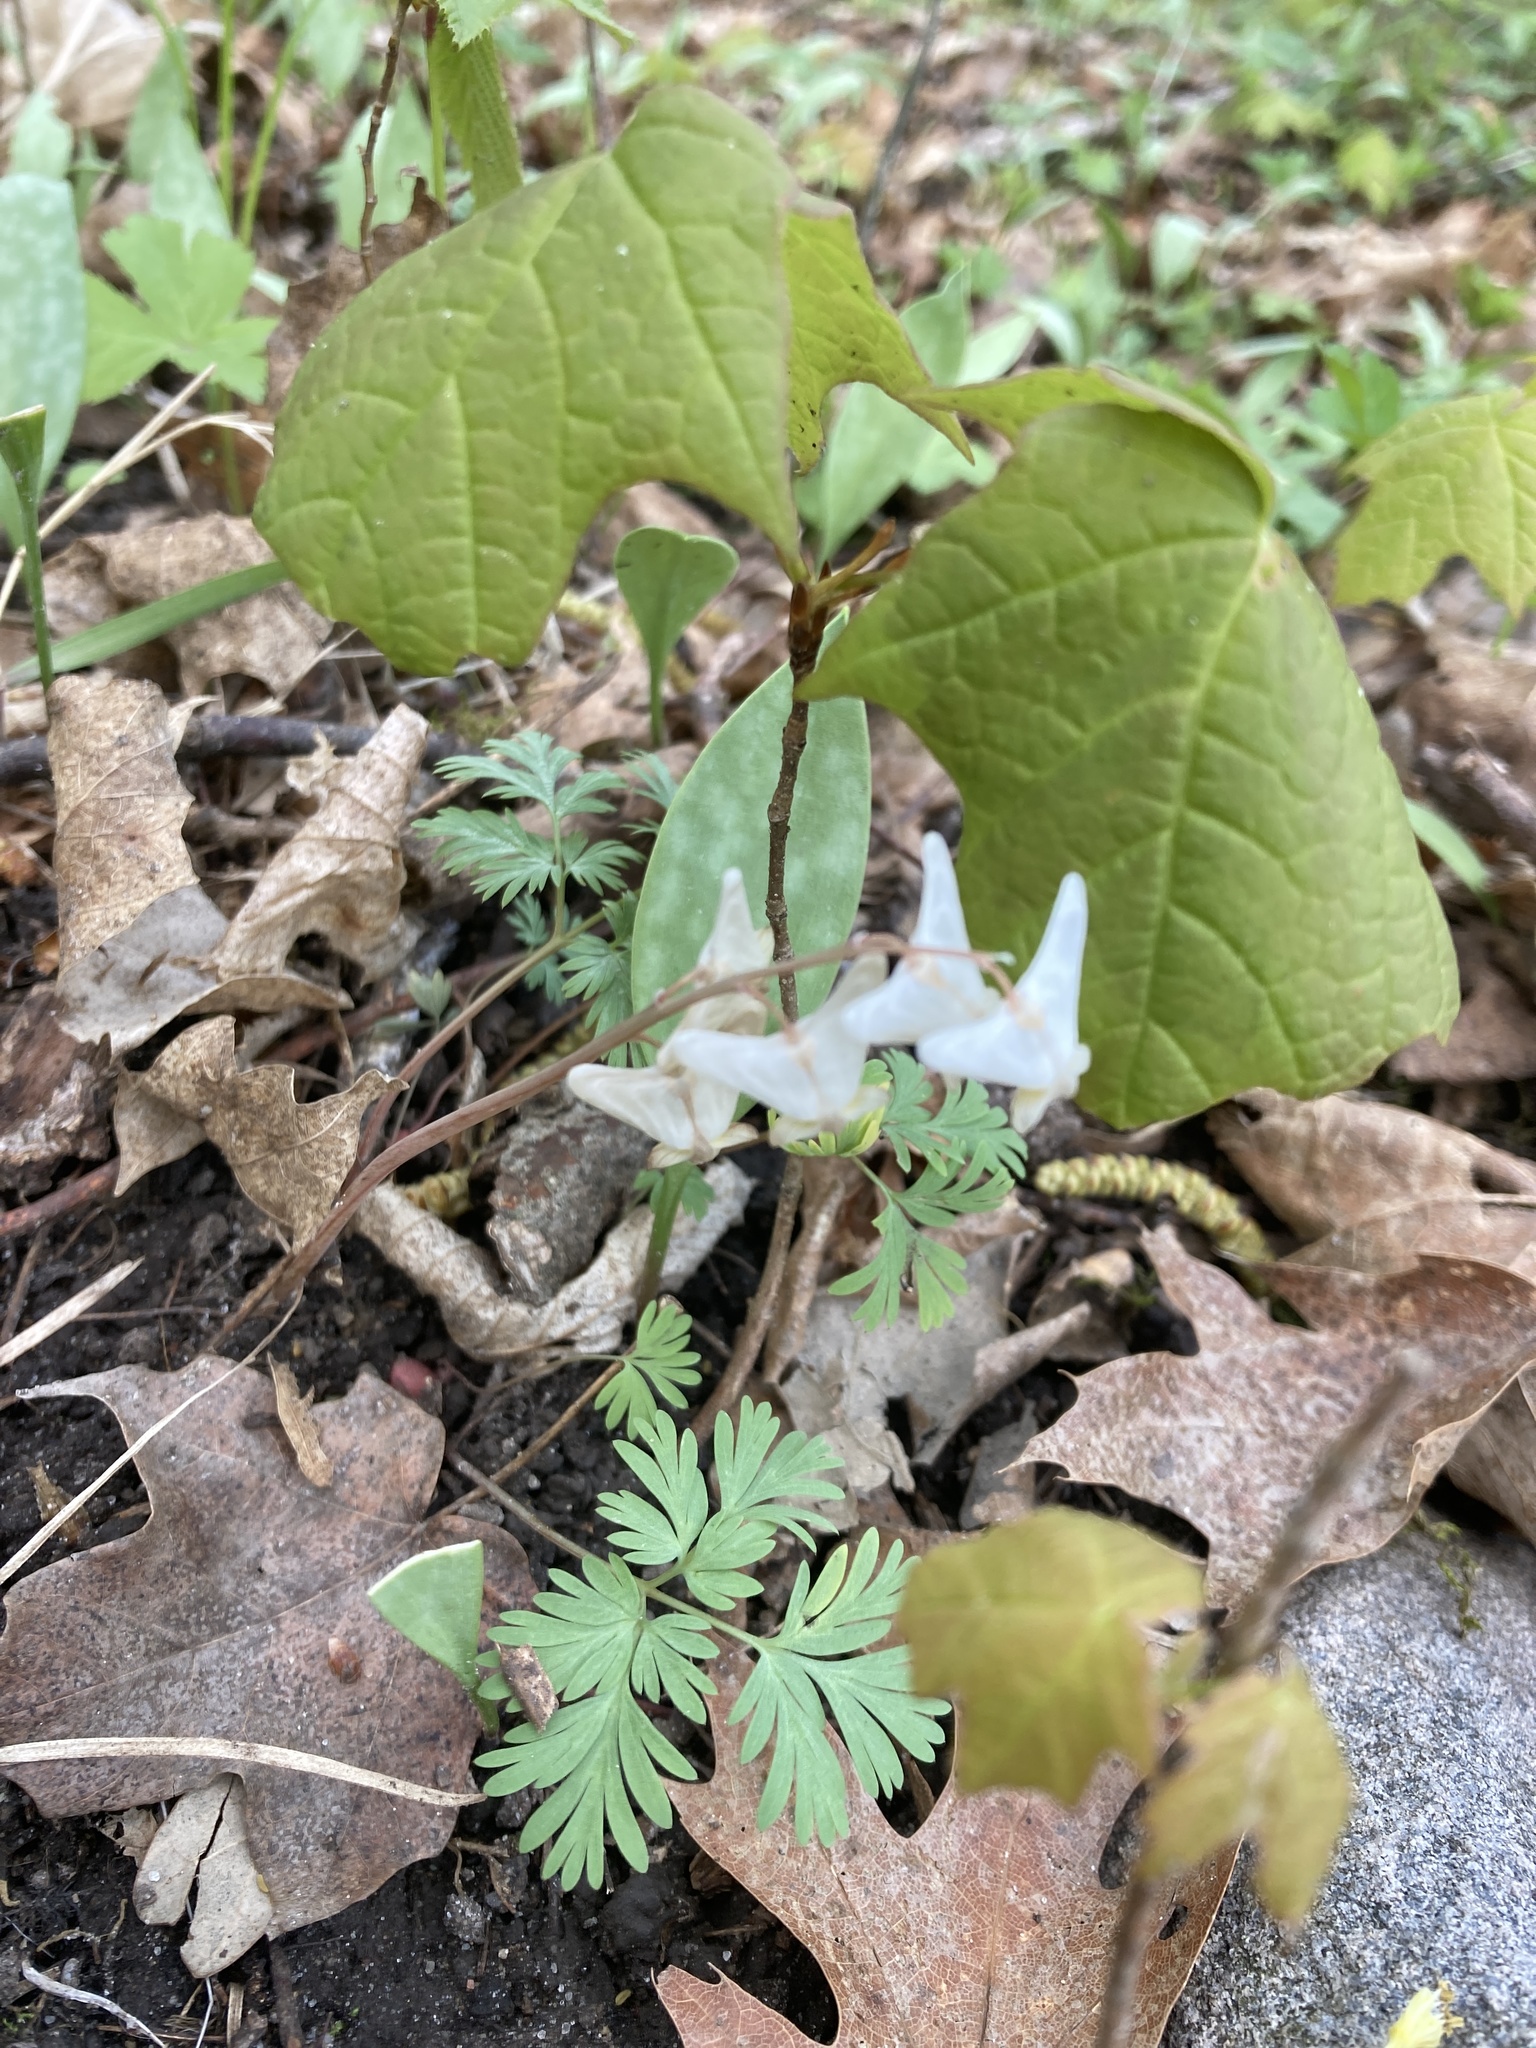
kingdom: Plantae
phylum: Tracheophyta
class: Magnoliopsida
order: Ranunculales
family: Papaveraceae
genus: Dicentra
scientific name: Dicentra cucullaria
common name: Dutchman's breeches
